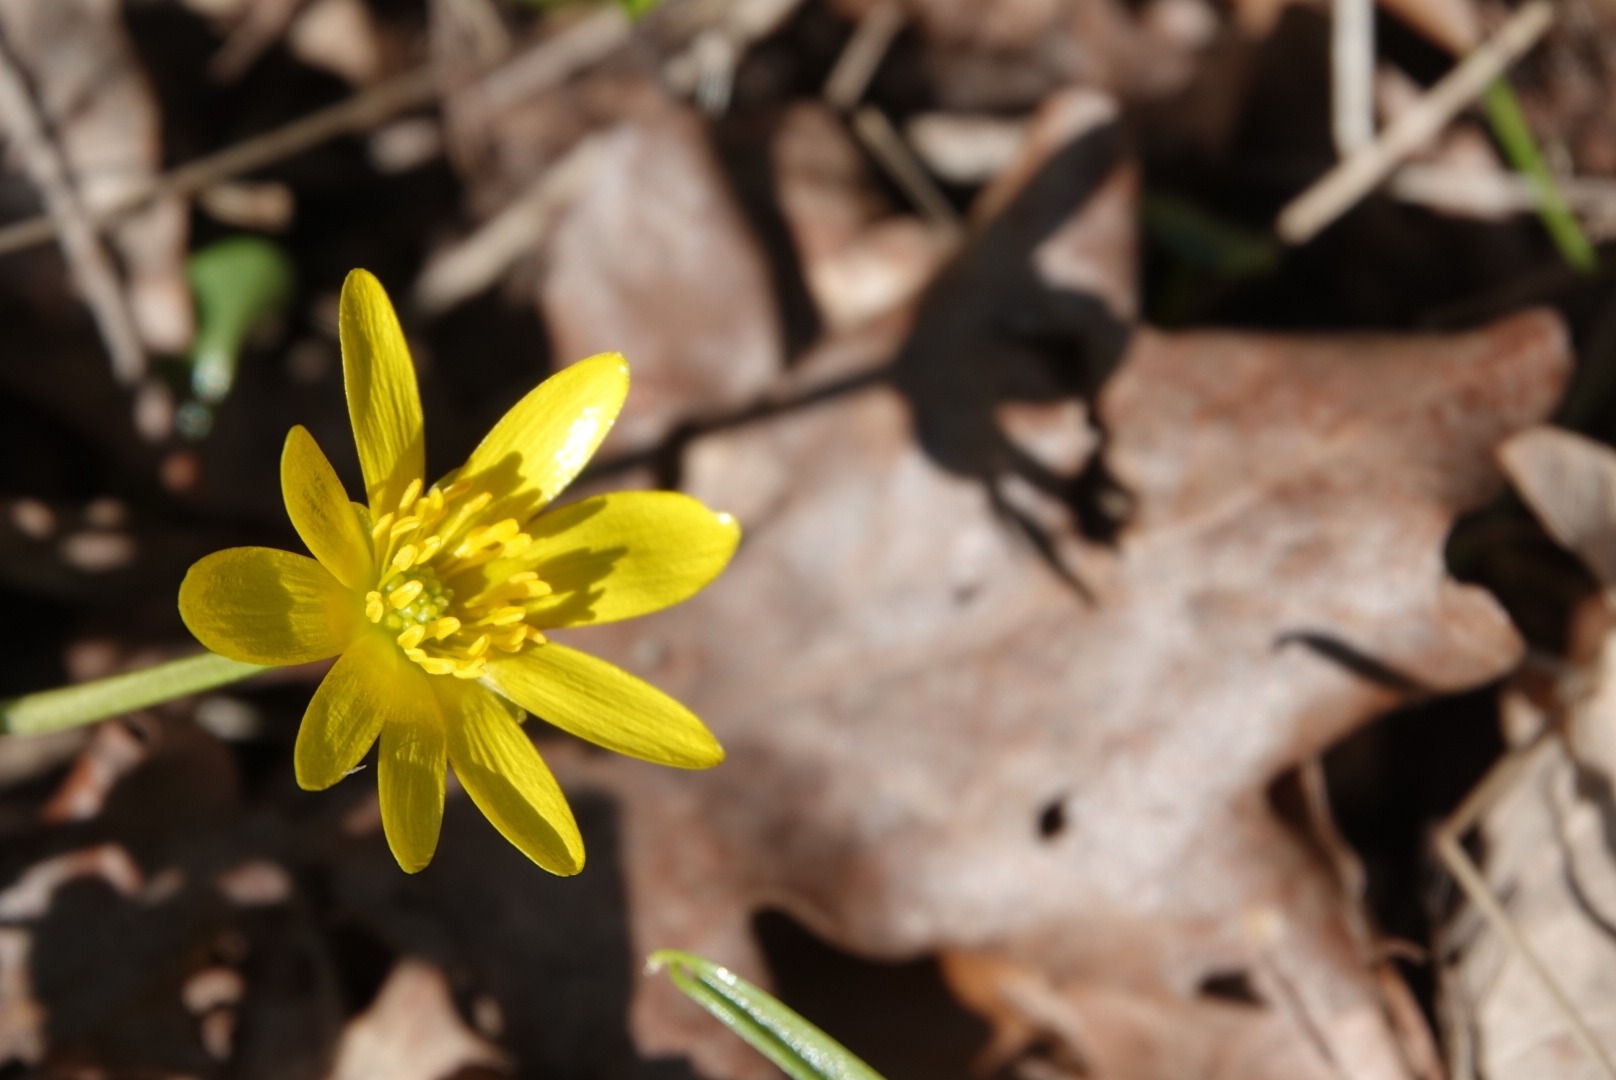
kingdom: Plantae
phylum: Tracheophyta
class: Magnoliopsida
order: Ranunculales
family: Ranunculaceae
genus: Ficaria
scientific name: Ficaria verna
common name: Lesser celandine
